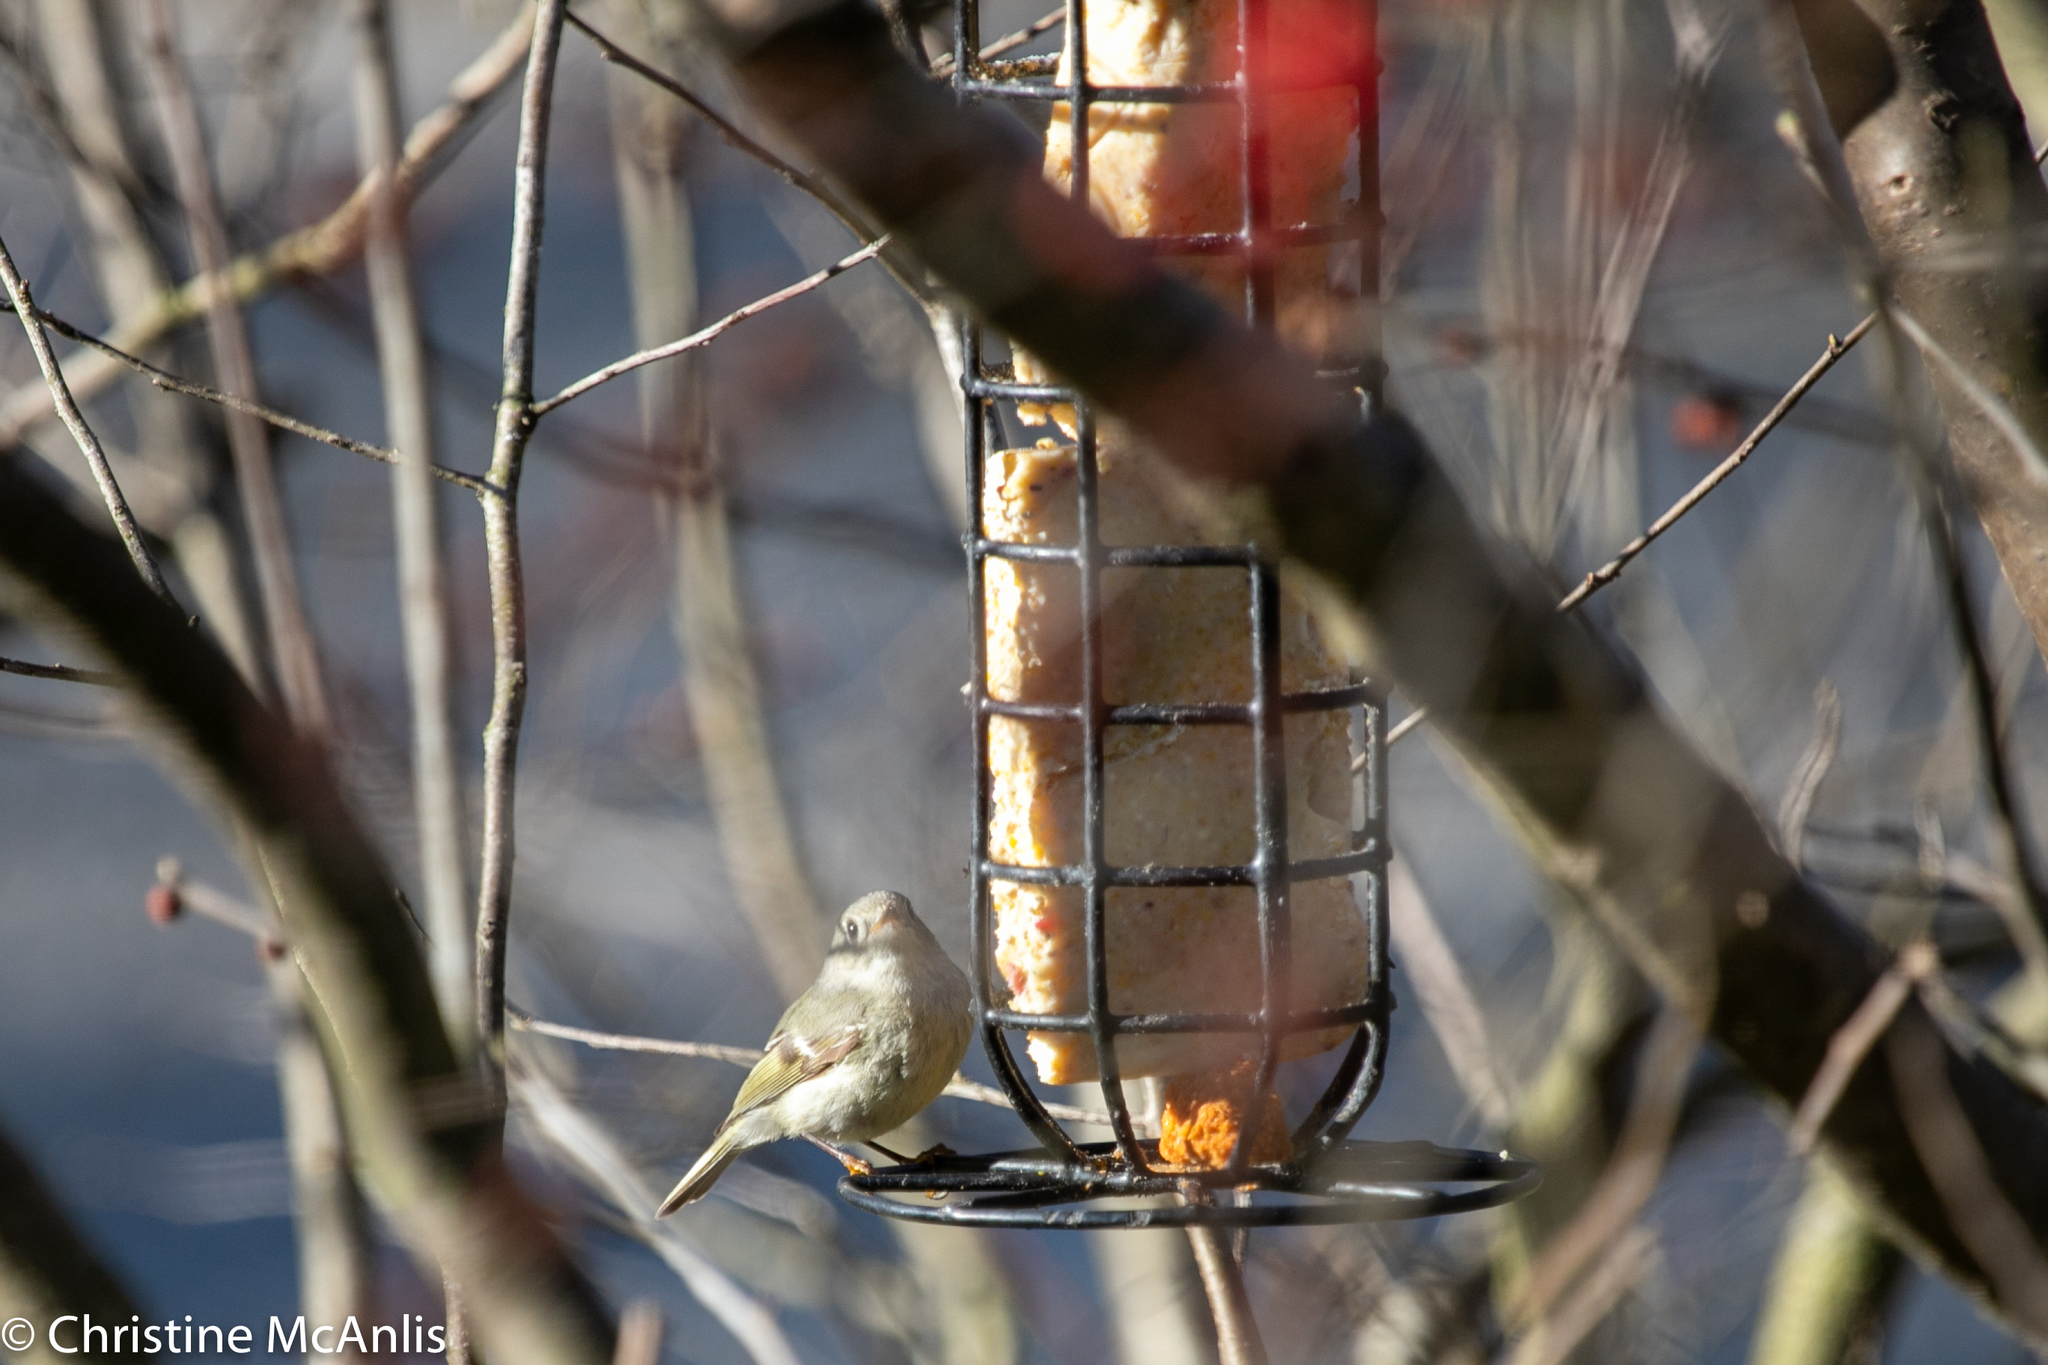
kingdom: Animalia
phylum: Chordata
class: Aves
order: Passeriformes
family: Regulidae
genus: Regulus
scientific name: Regulus calendula
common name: Ruby-crowned kinglet
